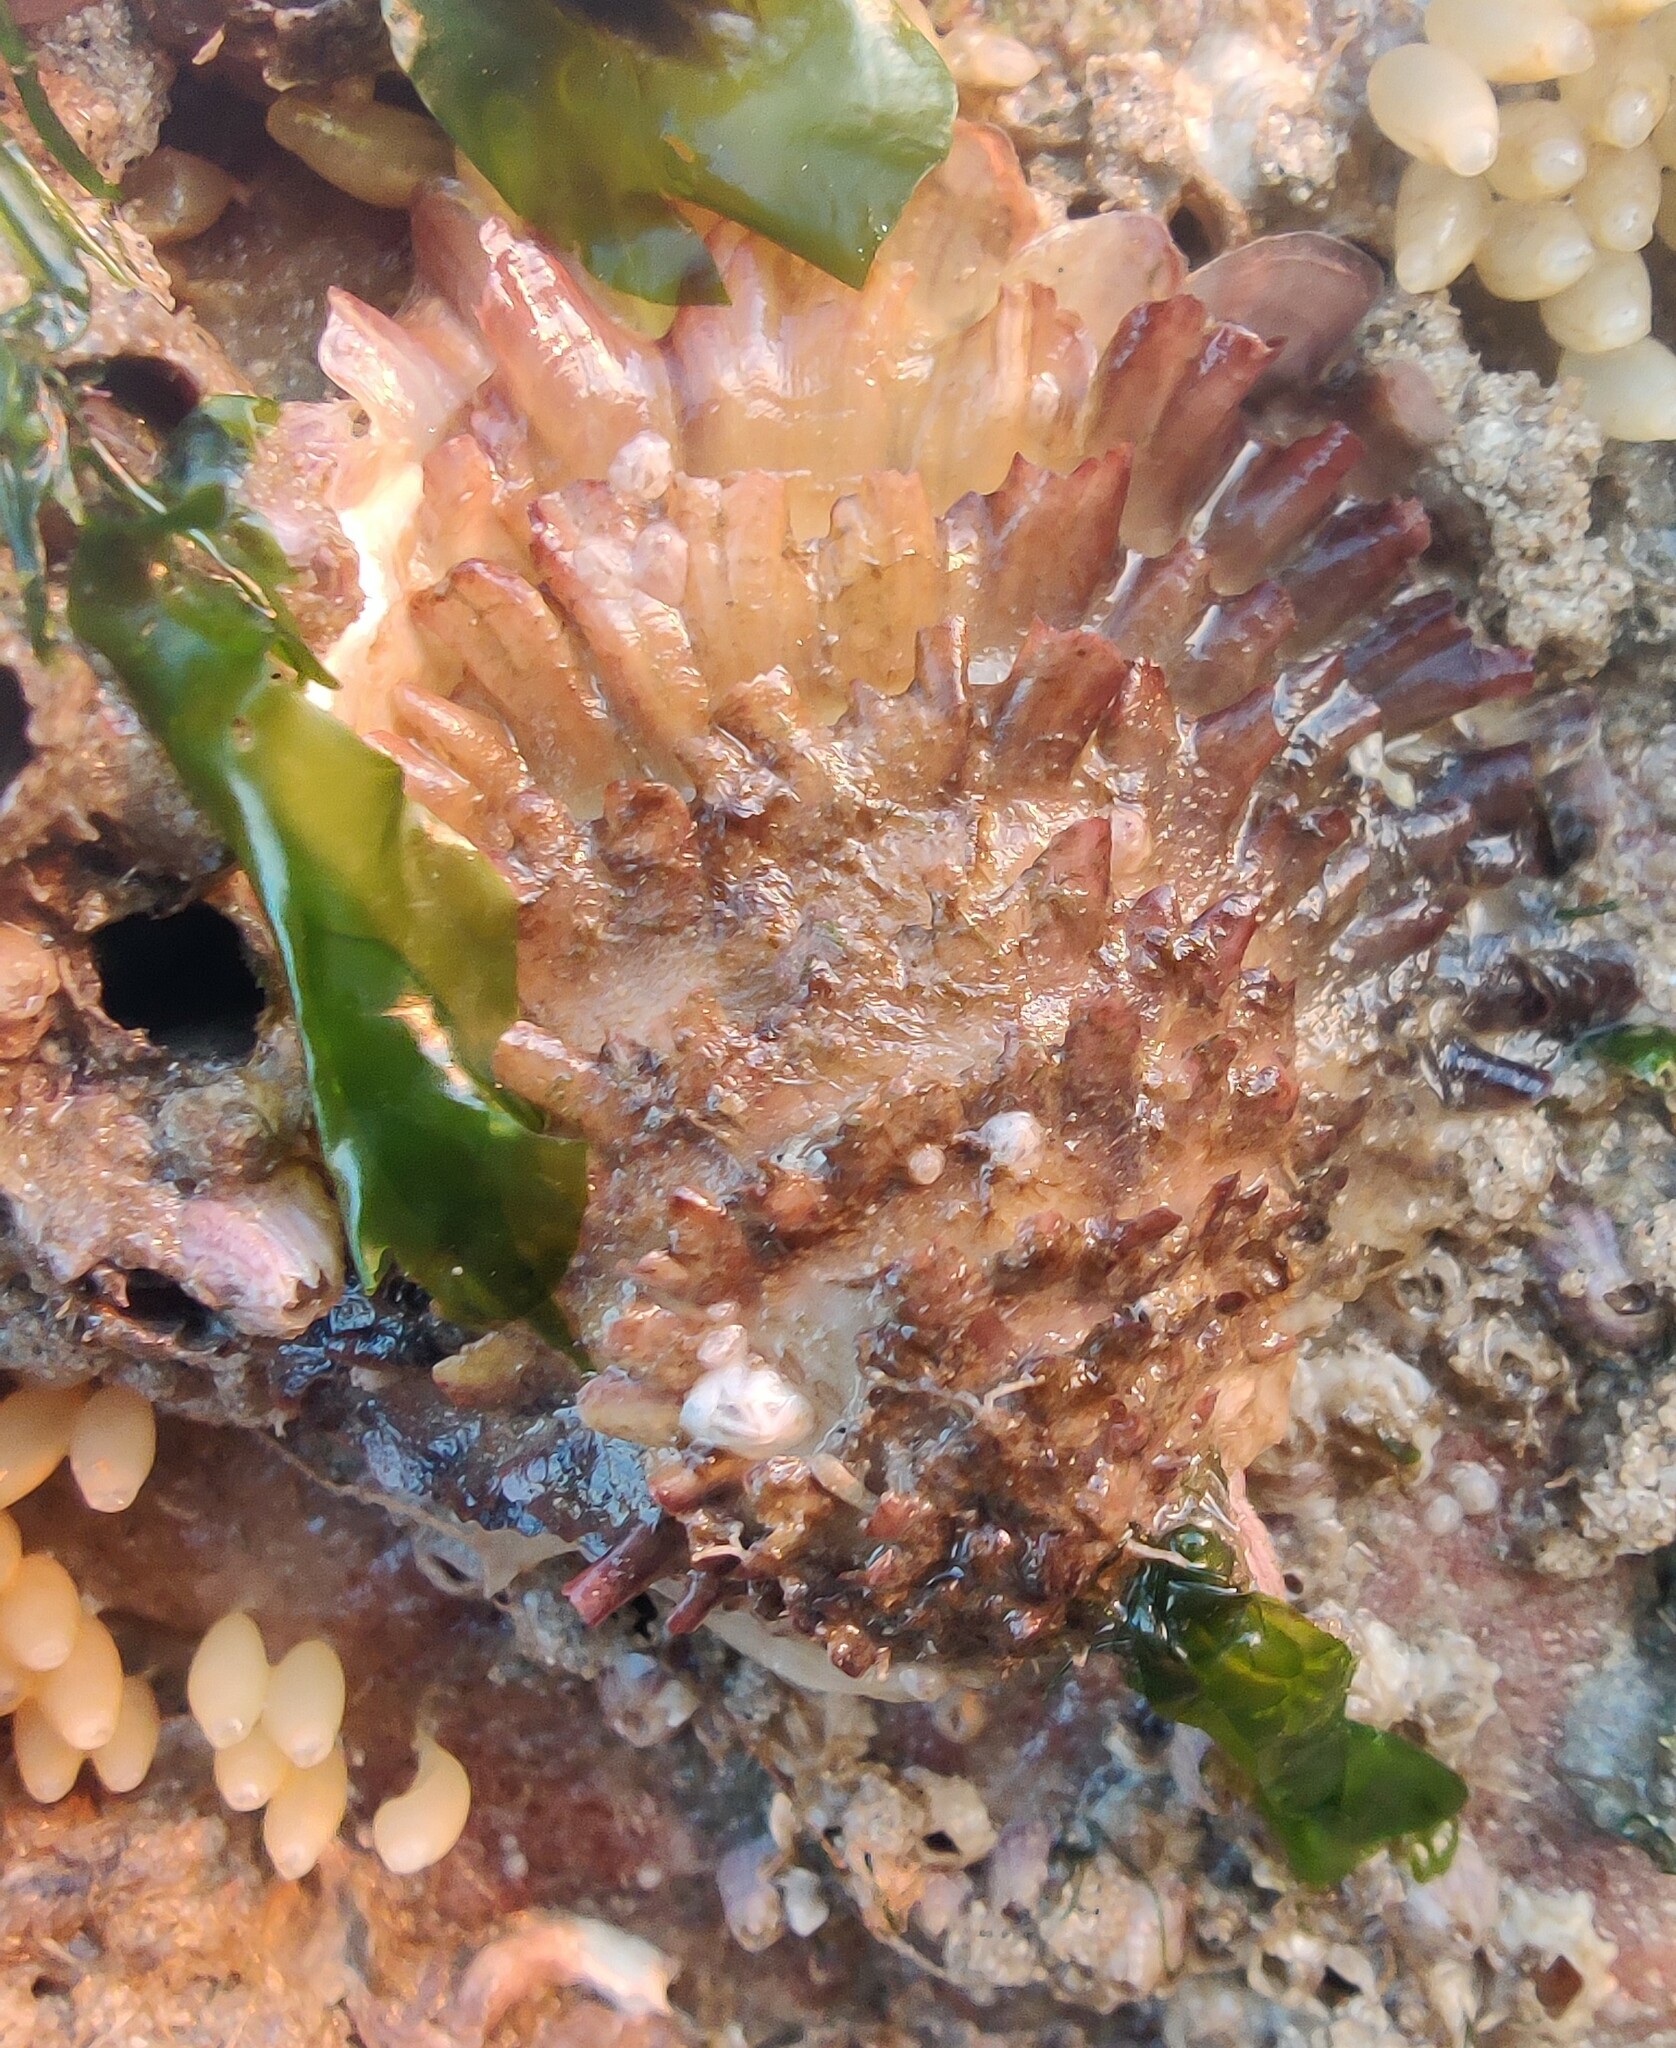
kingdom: Animalia
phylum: Mollusca
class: Bivalvia
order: Ostreida
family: Ostreidae
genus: Magallana
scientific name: Magallana gigas
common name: Pacific oyster
